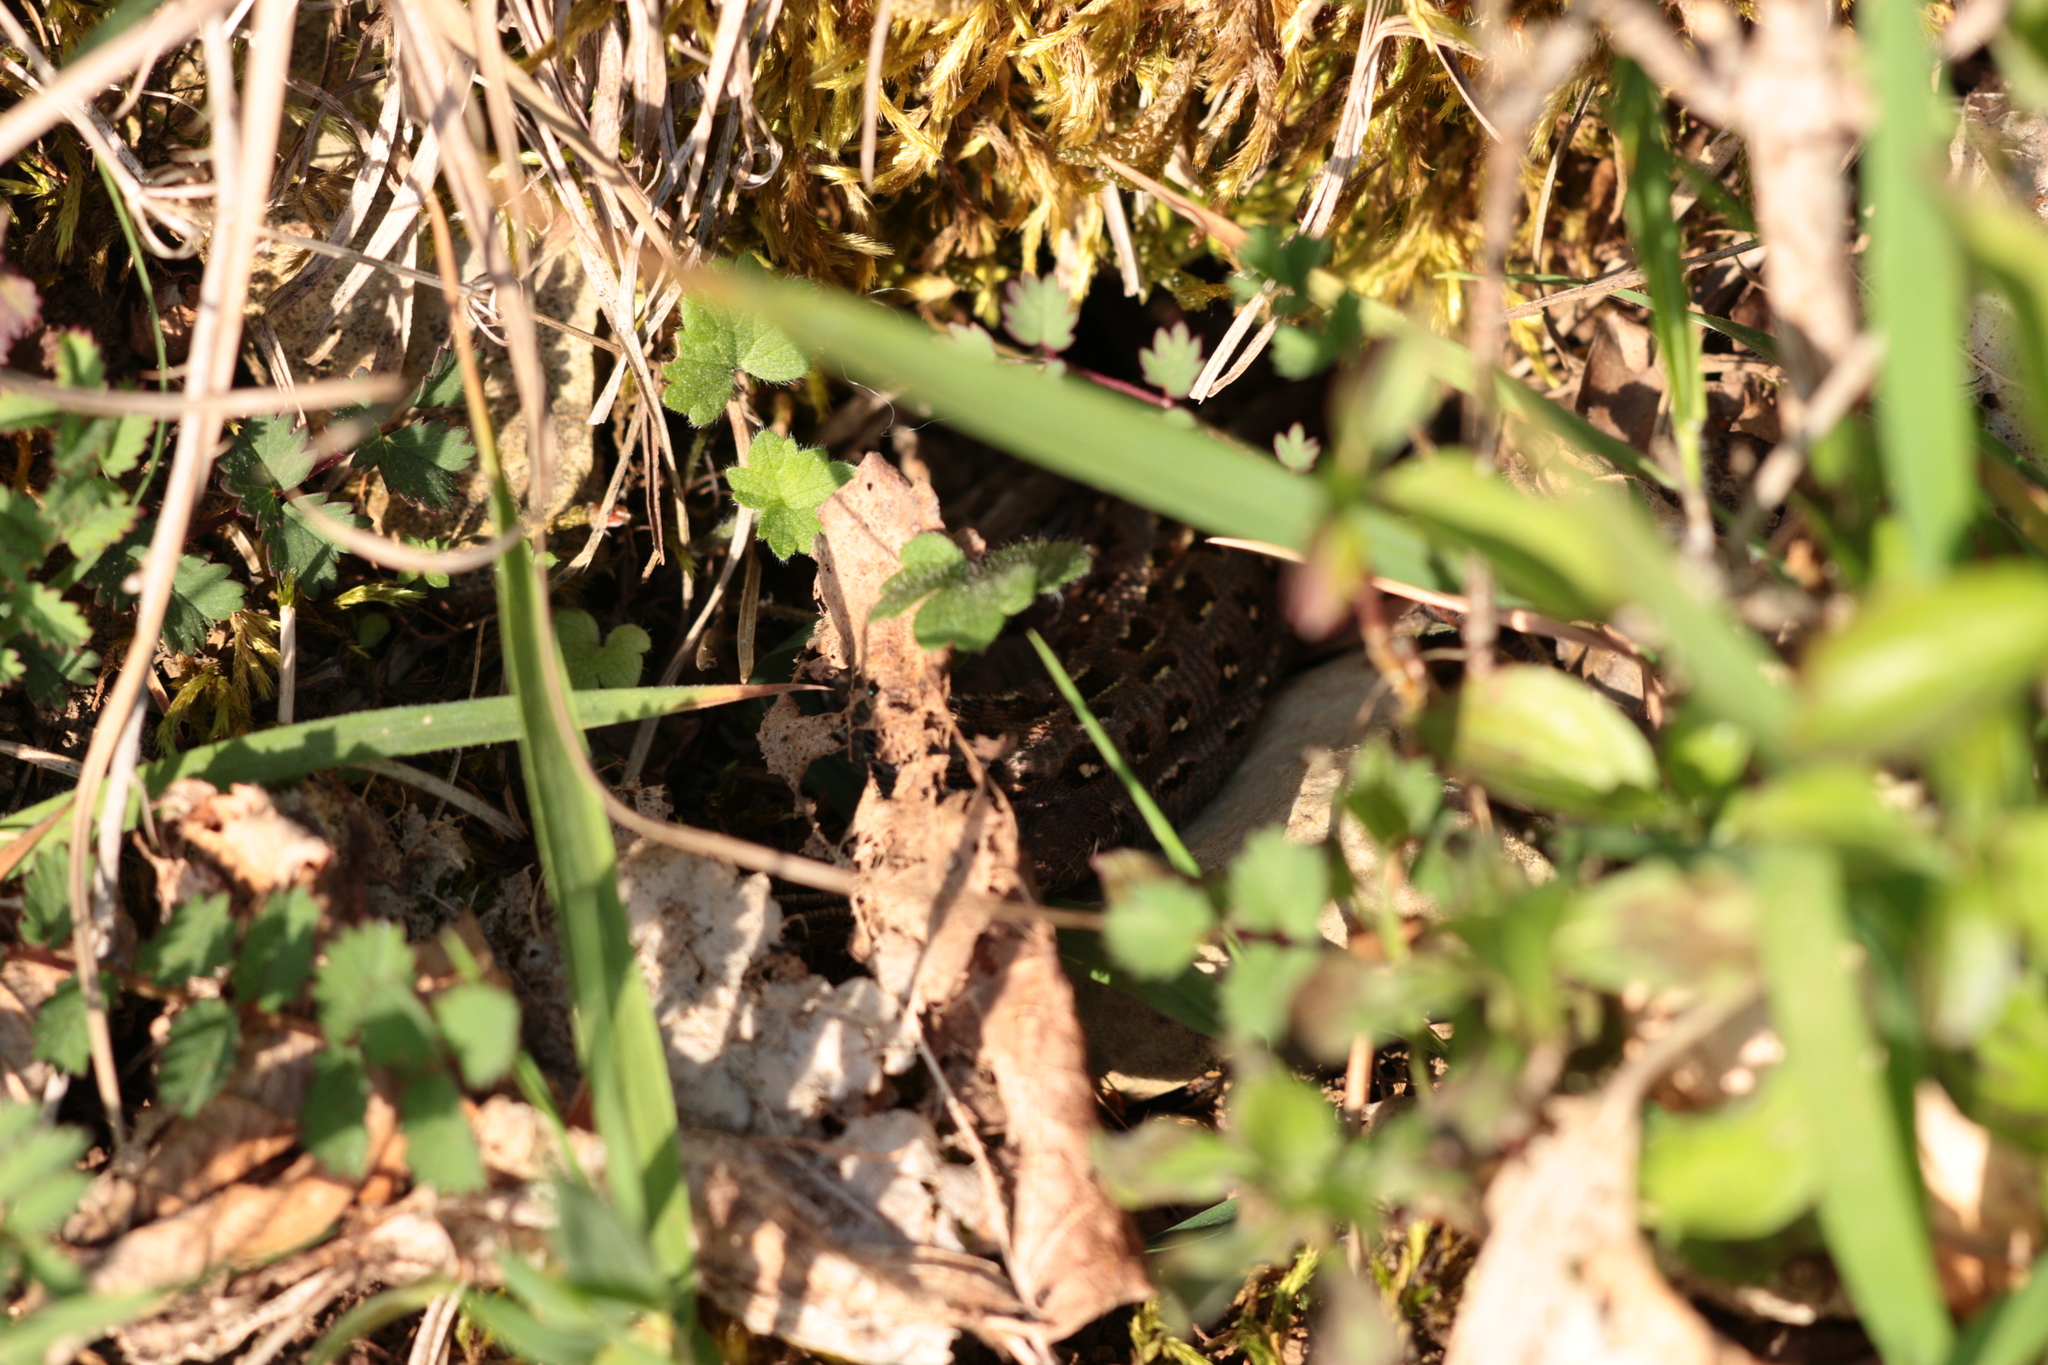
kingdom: Animalia
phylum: Chordata
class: Squamata
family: Lacertidae
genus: Lacerta
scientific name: Lacerta agilis
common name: Sand lizard
